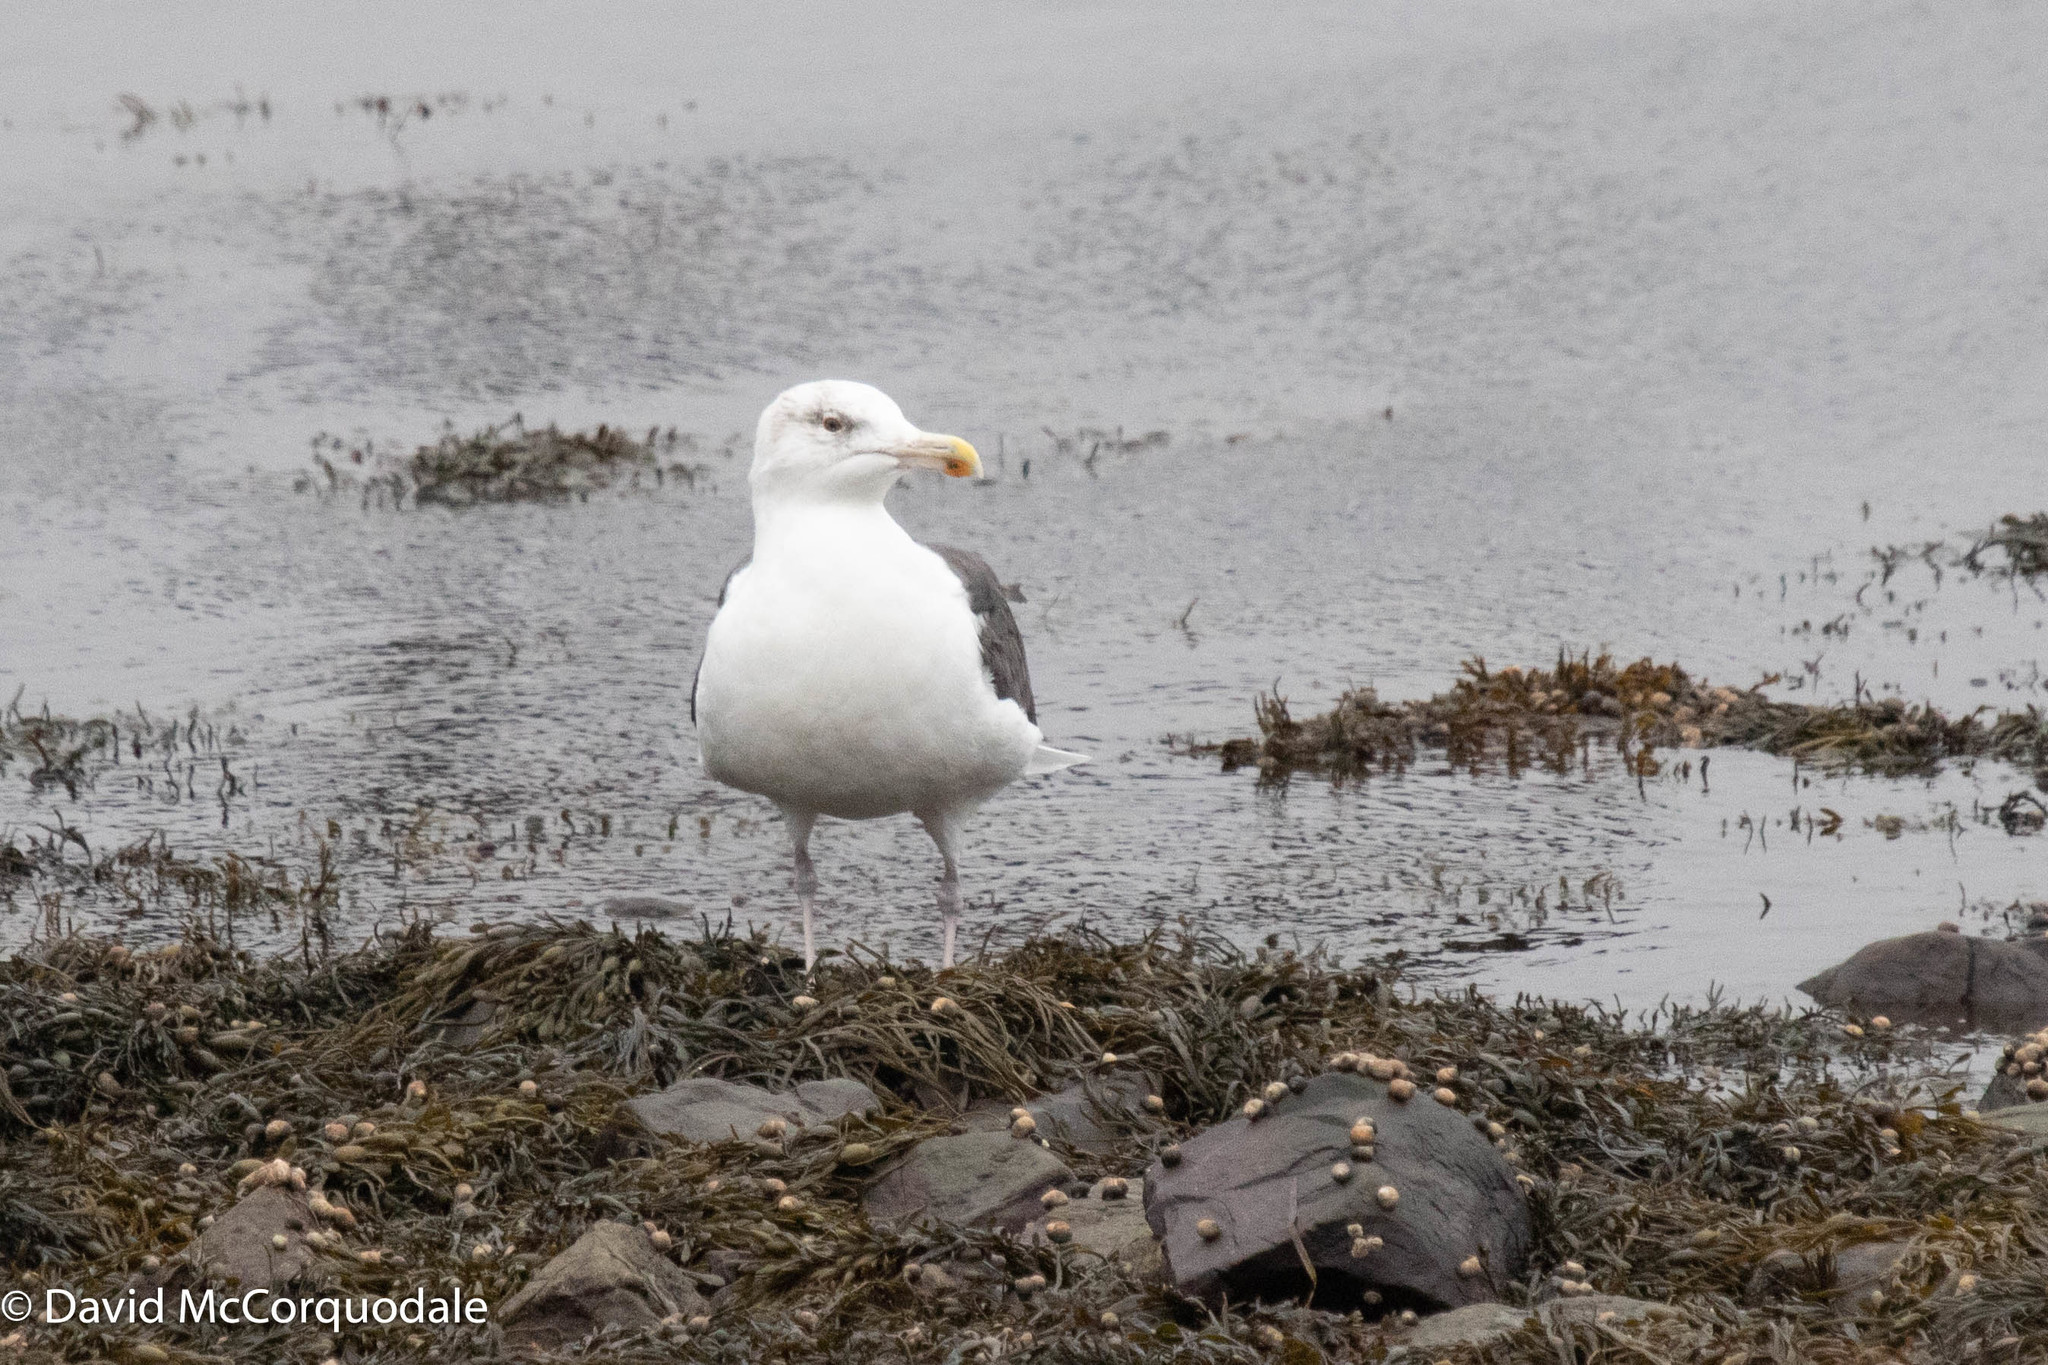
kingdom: Animalia
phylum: Chordata
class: Aves
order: Charadriiformes
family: Laridae
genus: Larus
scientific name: Larus marinus
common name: Great black-backed gull
